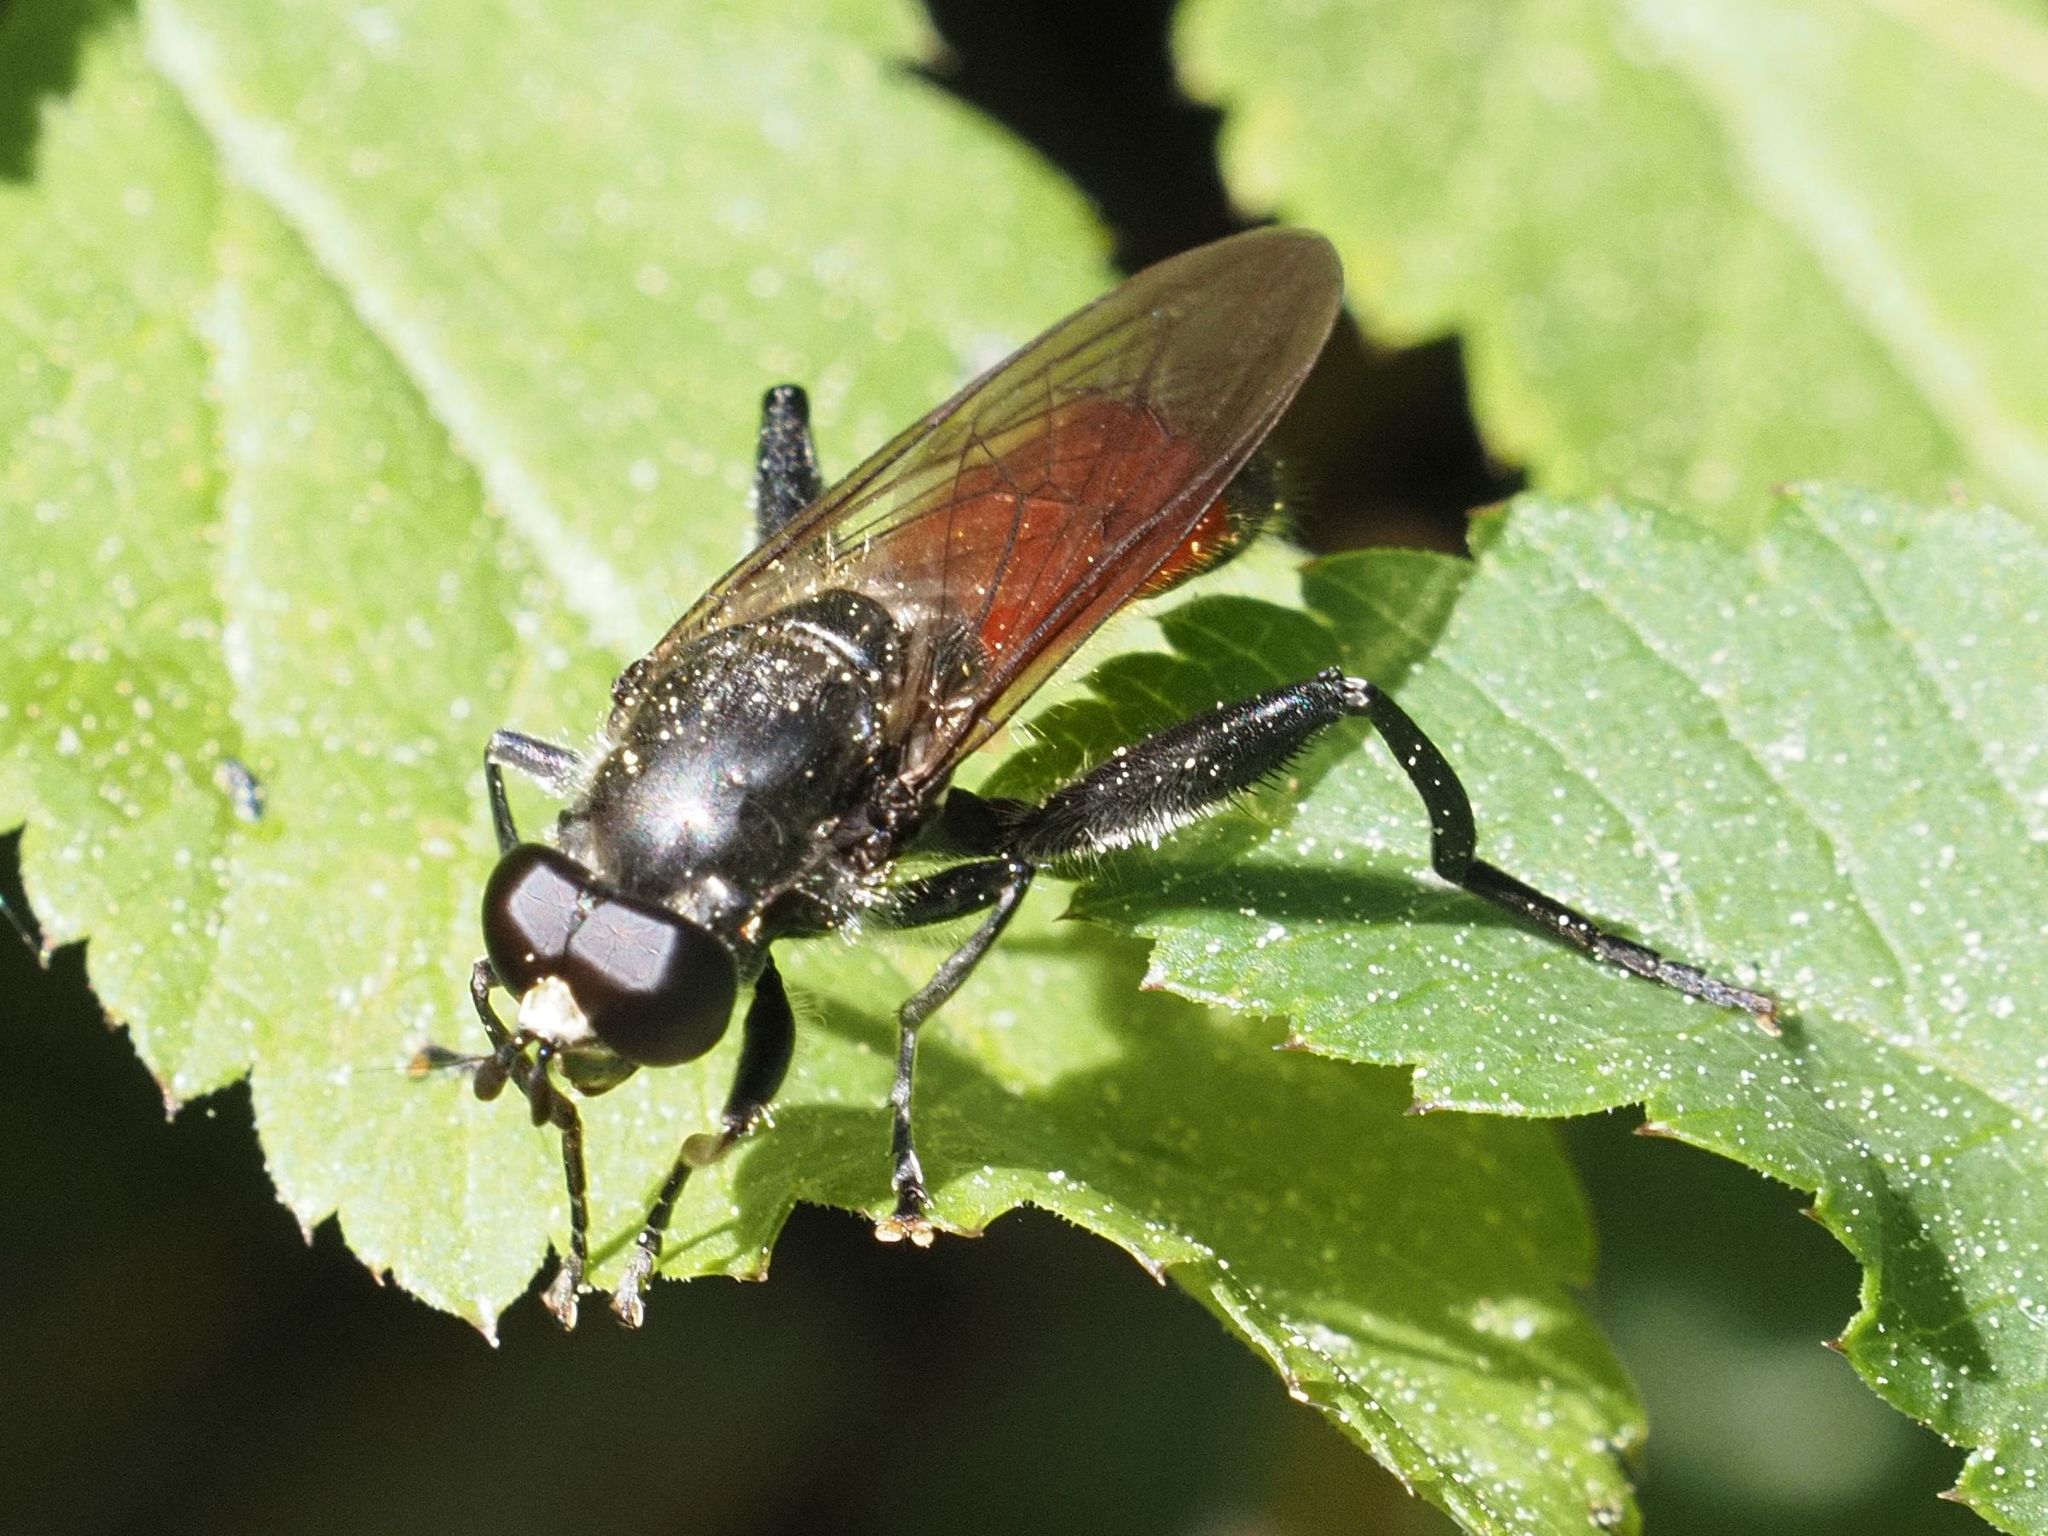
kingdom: Animalia
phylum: Arthropoda
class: Insecta
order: Diptera
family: Syrphidae
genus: Brachypalpoides
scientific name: Brachypalpoides lenta
